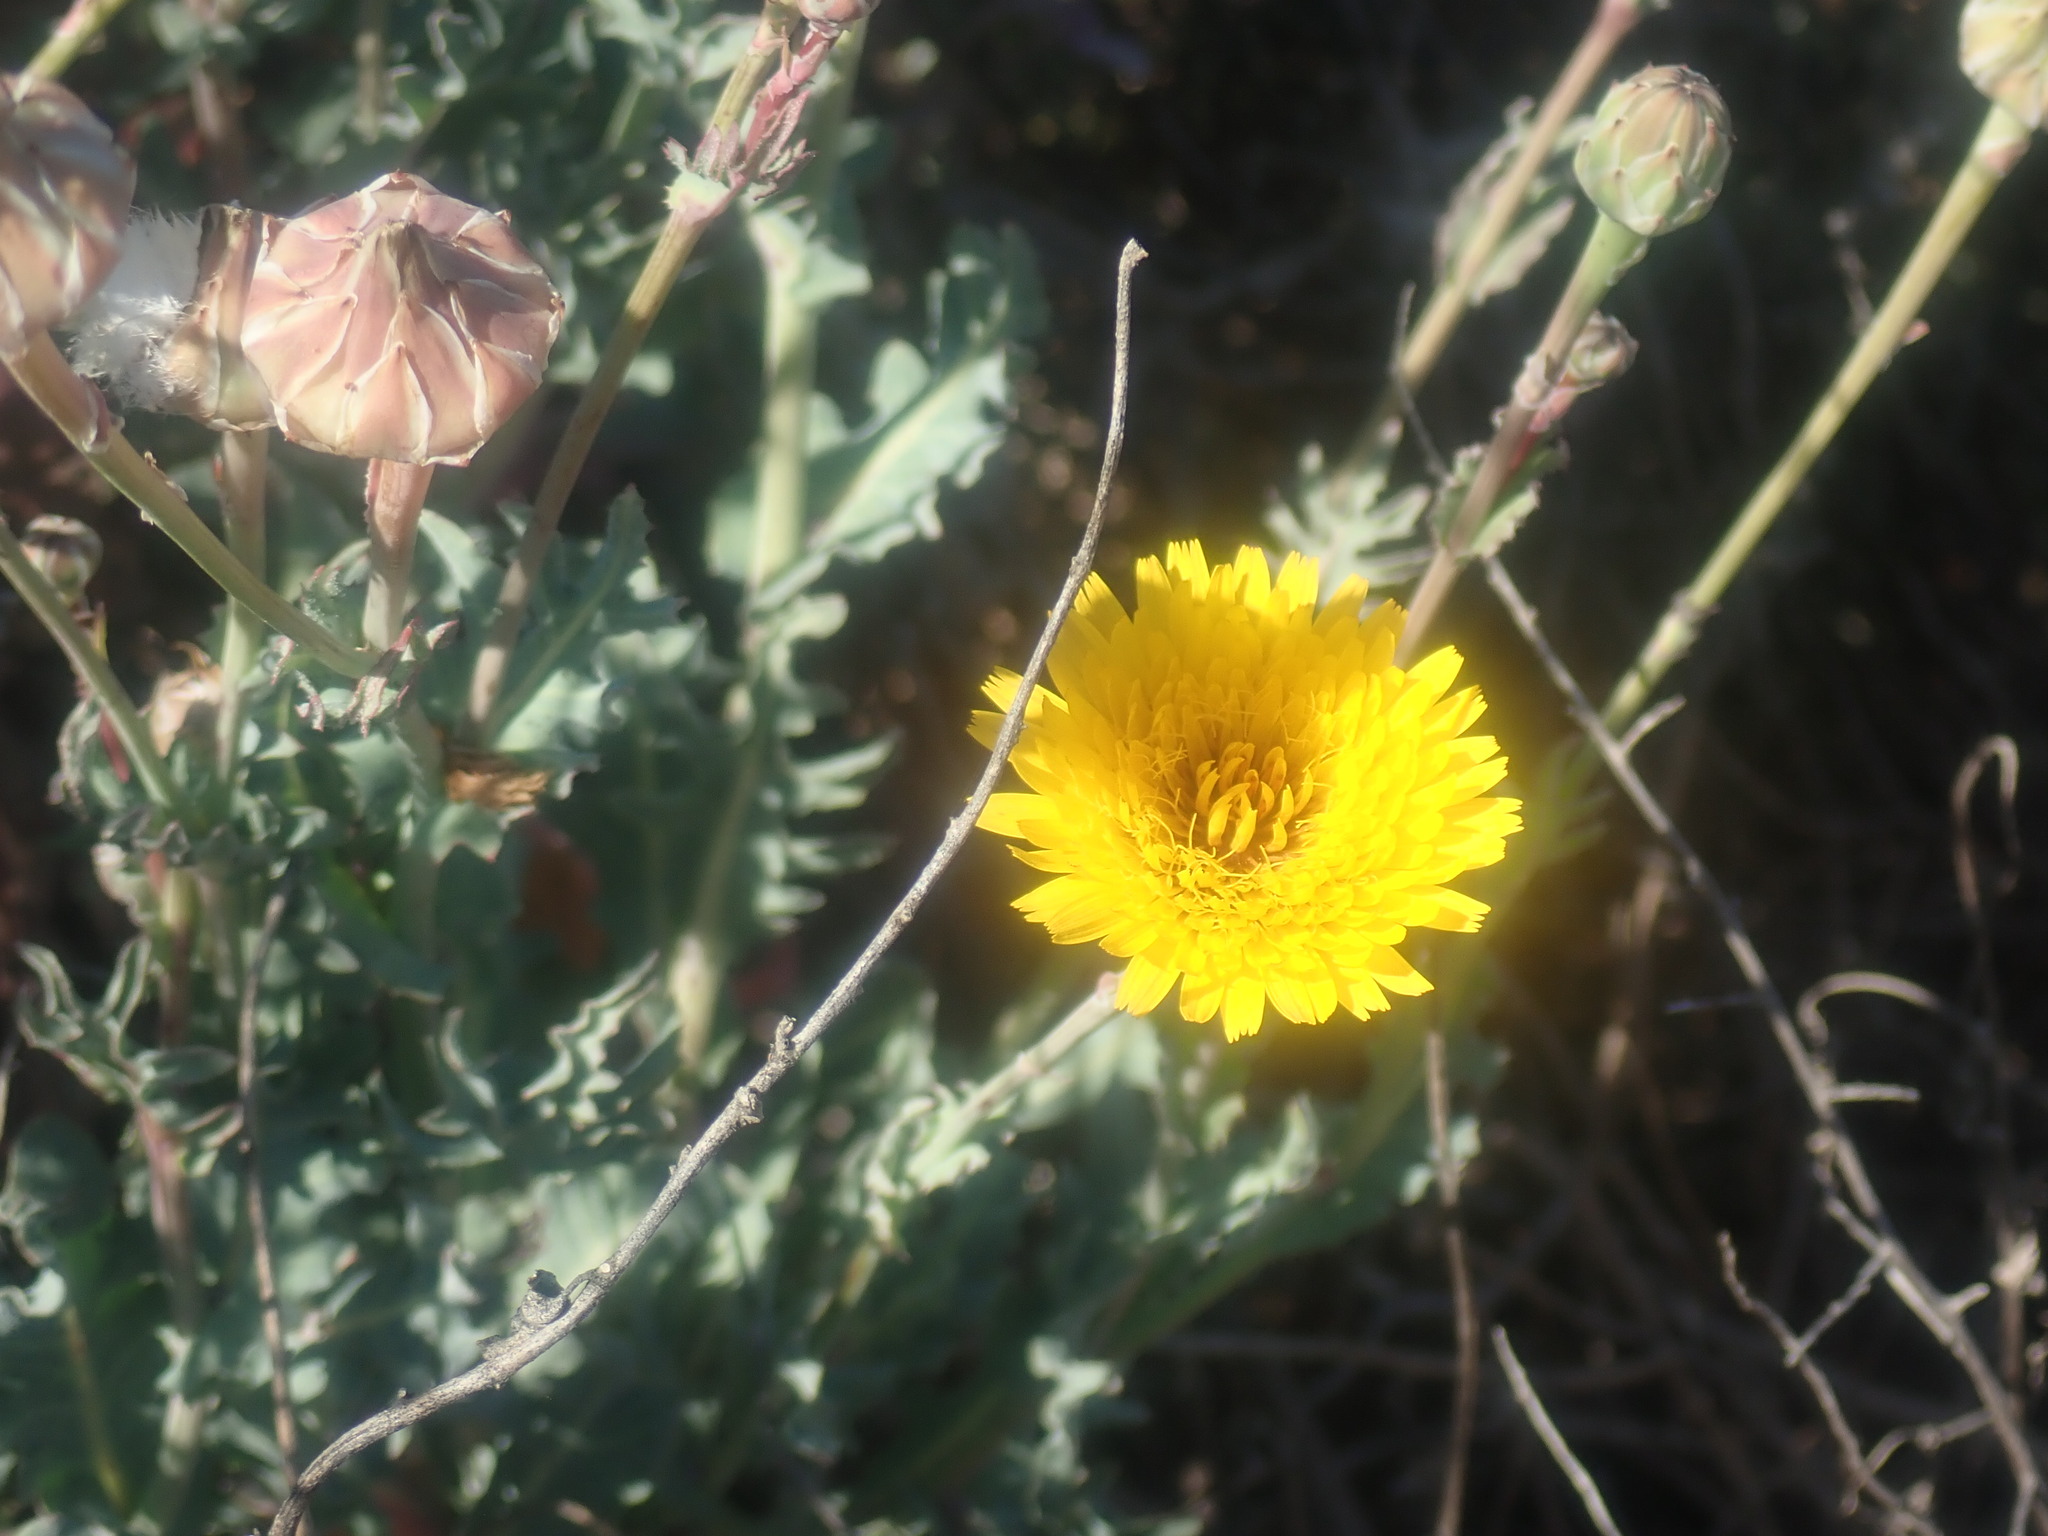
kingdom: Plantae
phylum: Tracheophyta
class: Magnoliopsida
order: Asterales
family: Asteraceae
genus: Reichardia
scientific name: Reichardia tingitana
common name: Reichardia
